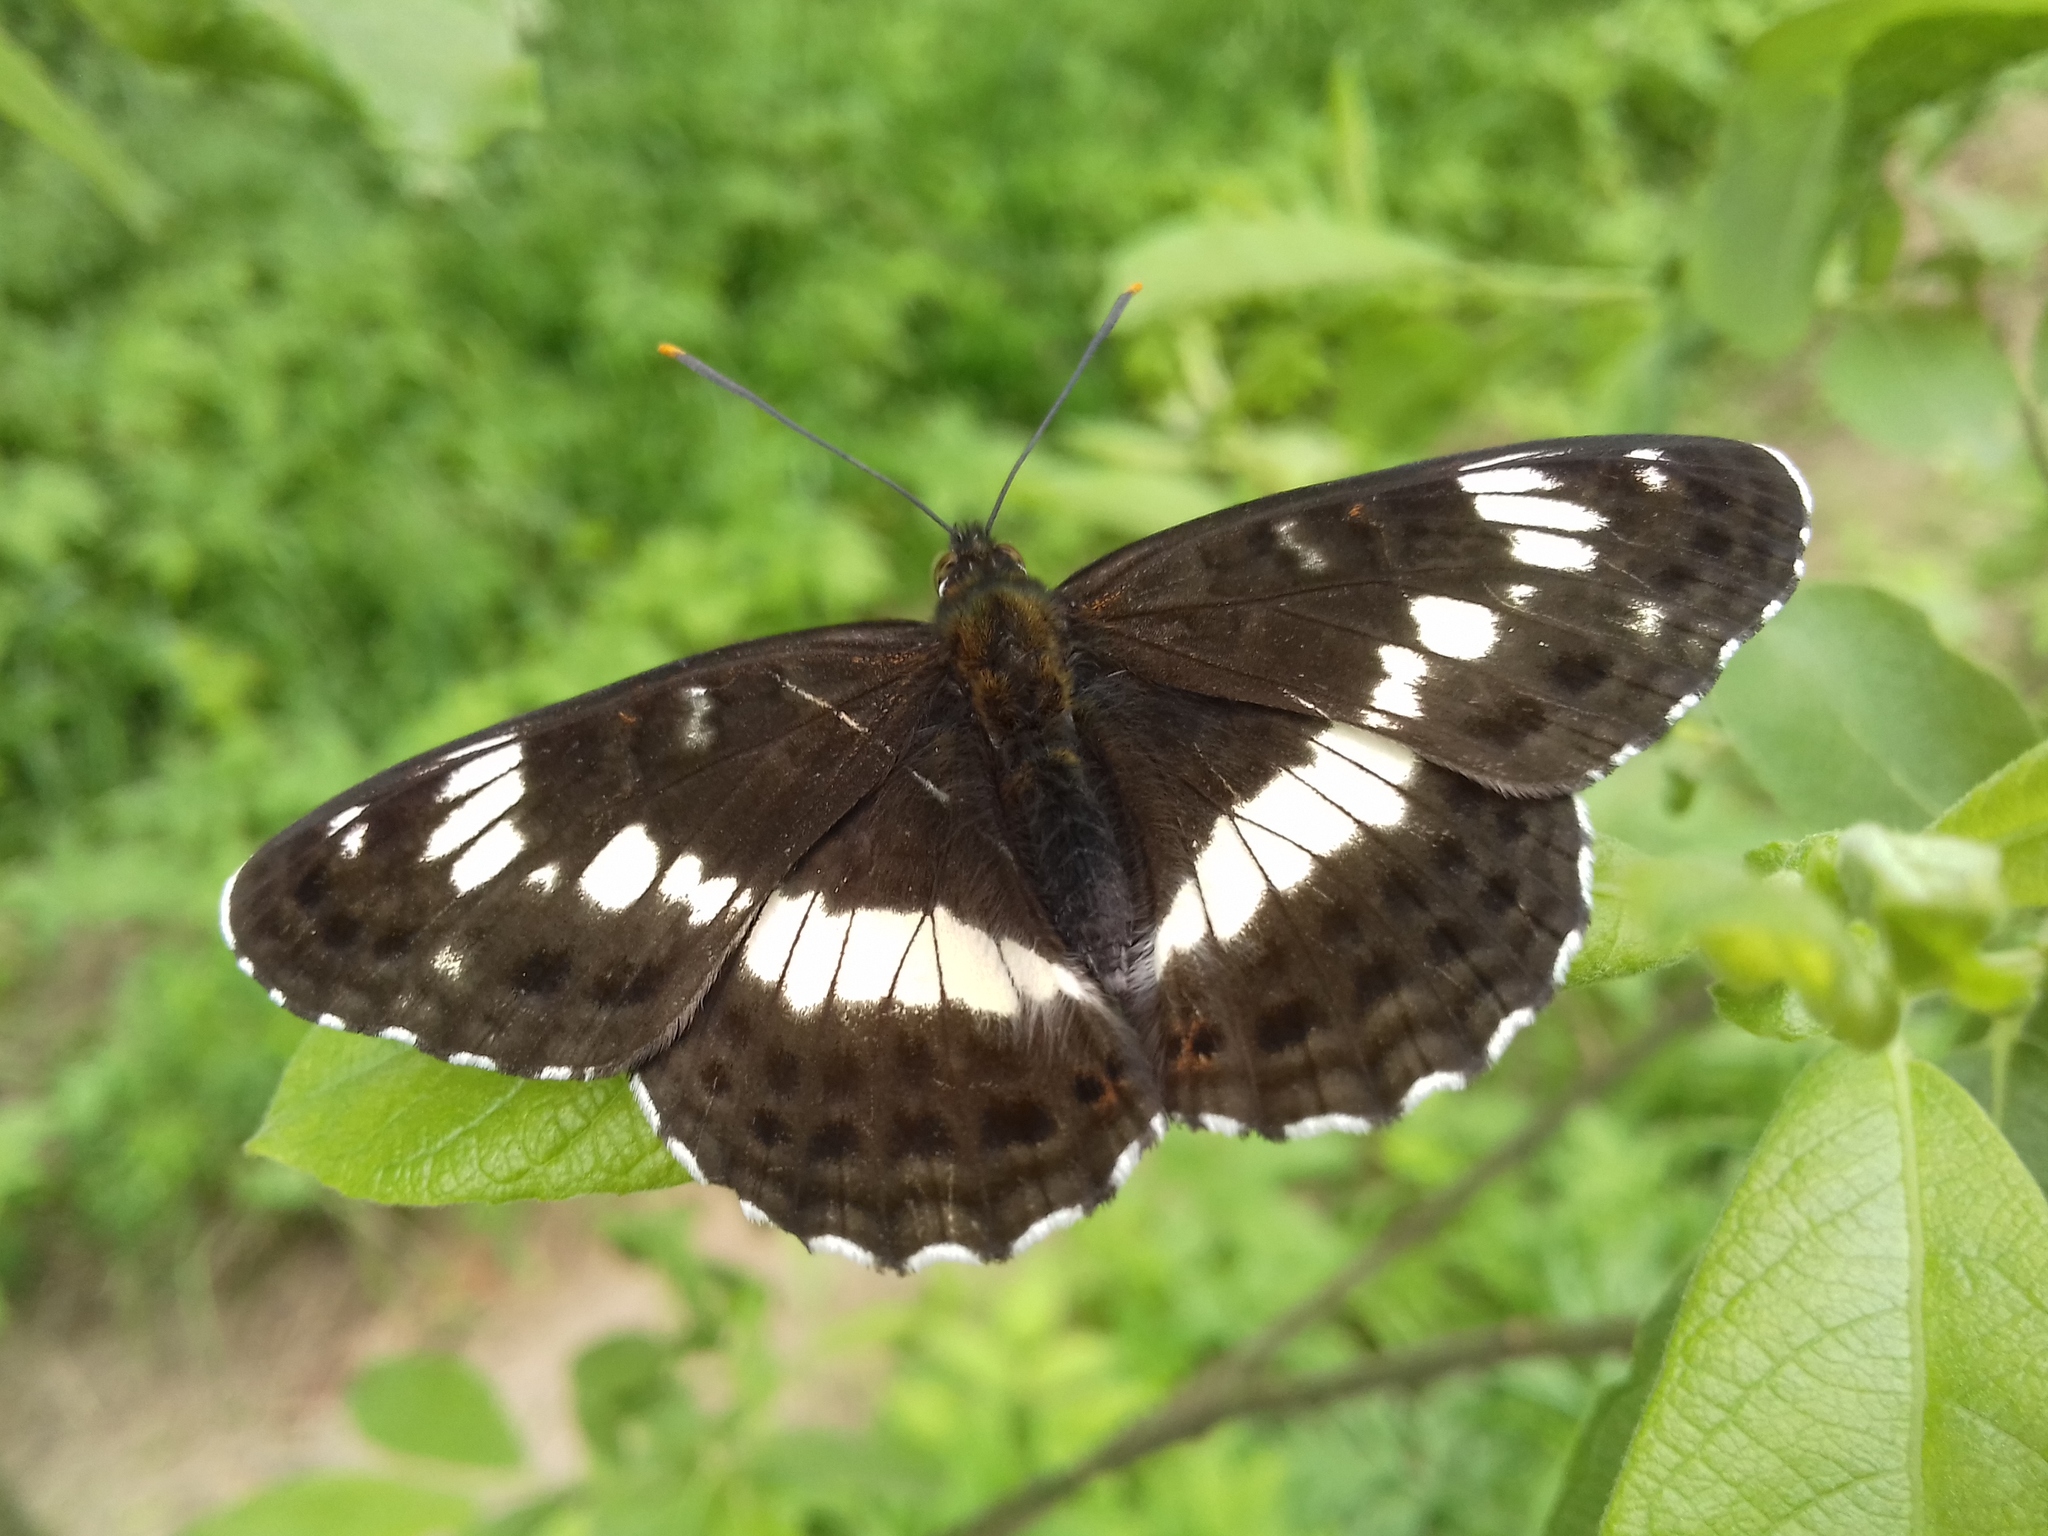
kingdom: Animalia
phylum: Arthropoda
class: Insecta
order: Lepidoptera
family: Nymphalidae
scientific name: Nymphalidae
